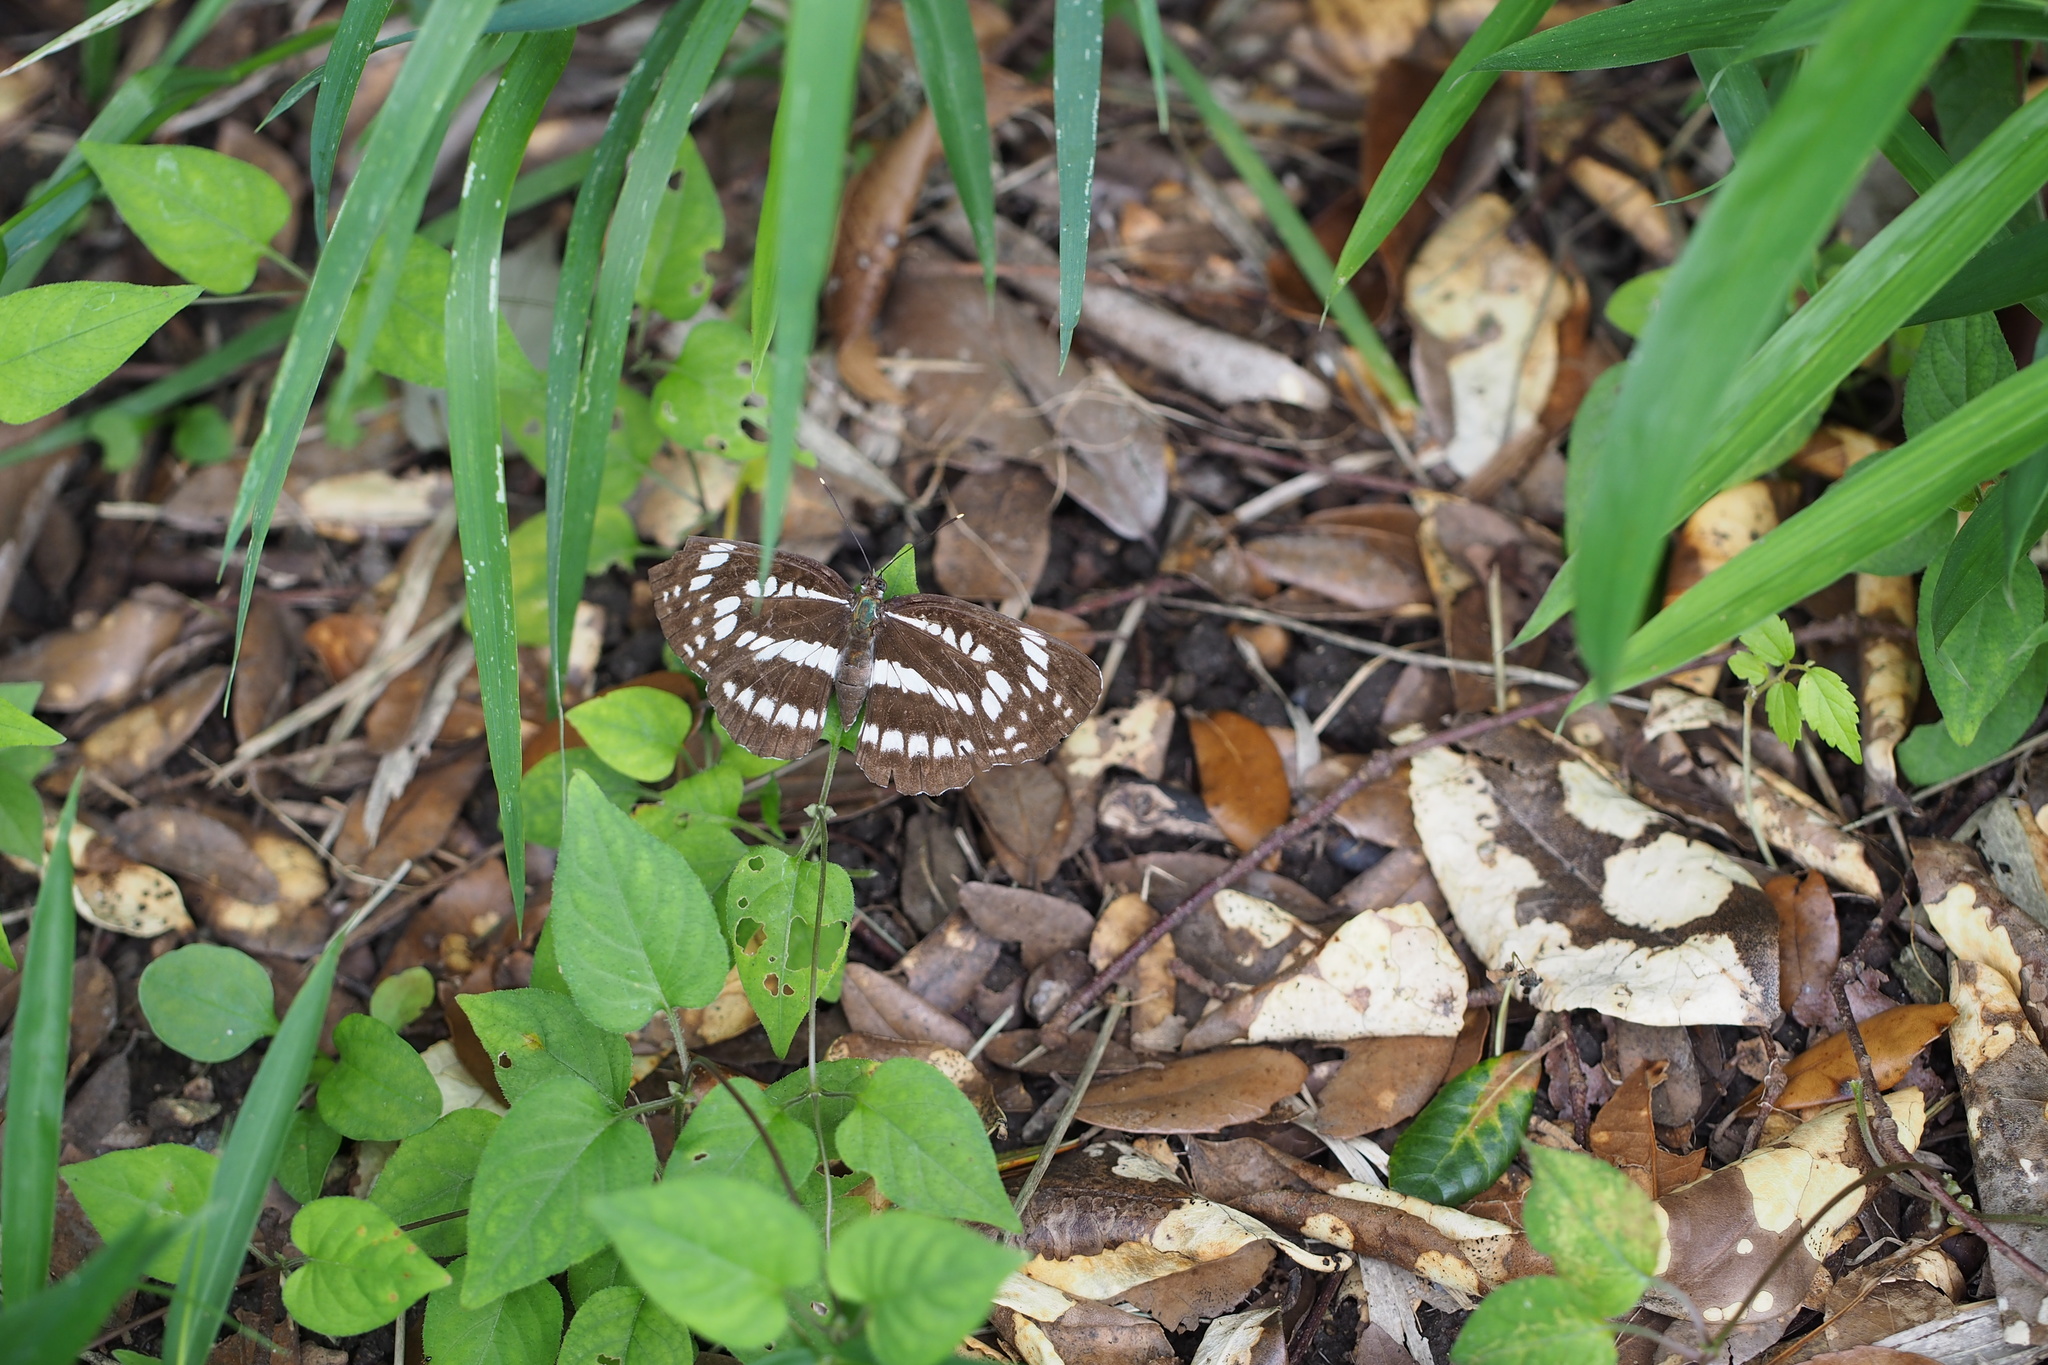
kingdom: Animalia
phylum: Arthropoda
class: Insecta
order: Lepidoptera
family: Nymphalidae
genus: Neptis
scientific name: Neptis pryeri
